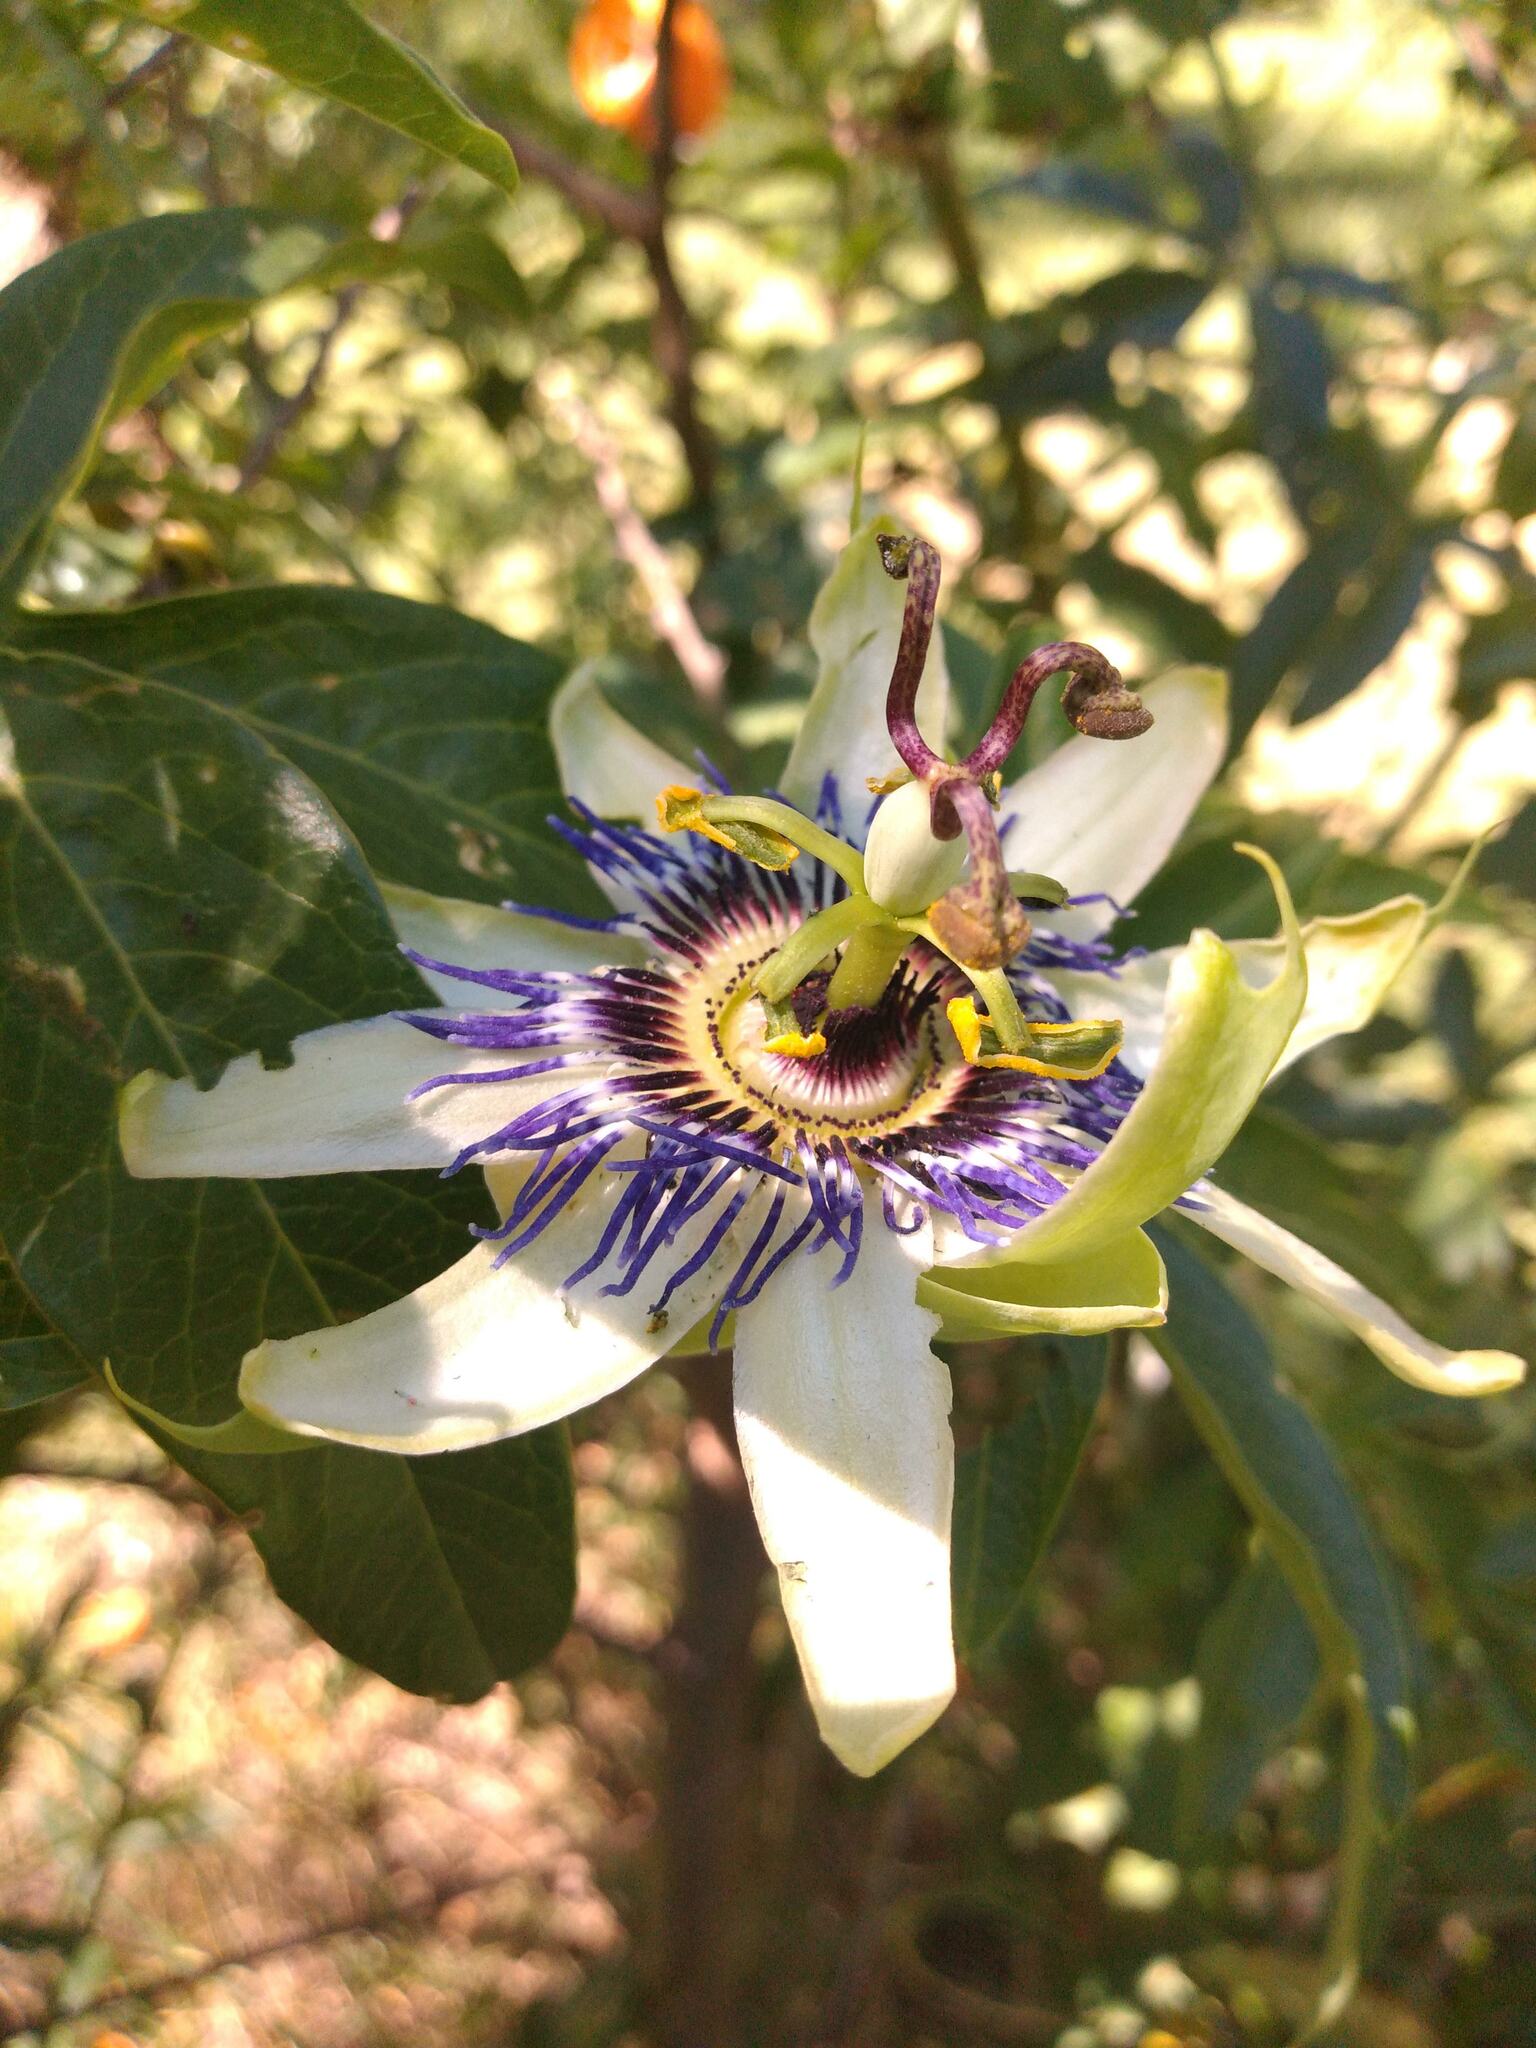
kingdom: Plantae
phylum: Tracheophyta
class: Magnoliopsida
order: Malpighiales
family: Passifloraceae
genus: Passiflora
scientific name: Passiflora caerulea
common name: Blue passionflower
